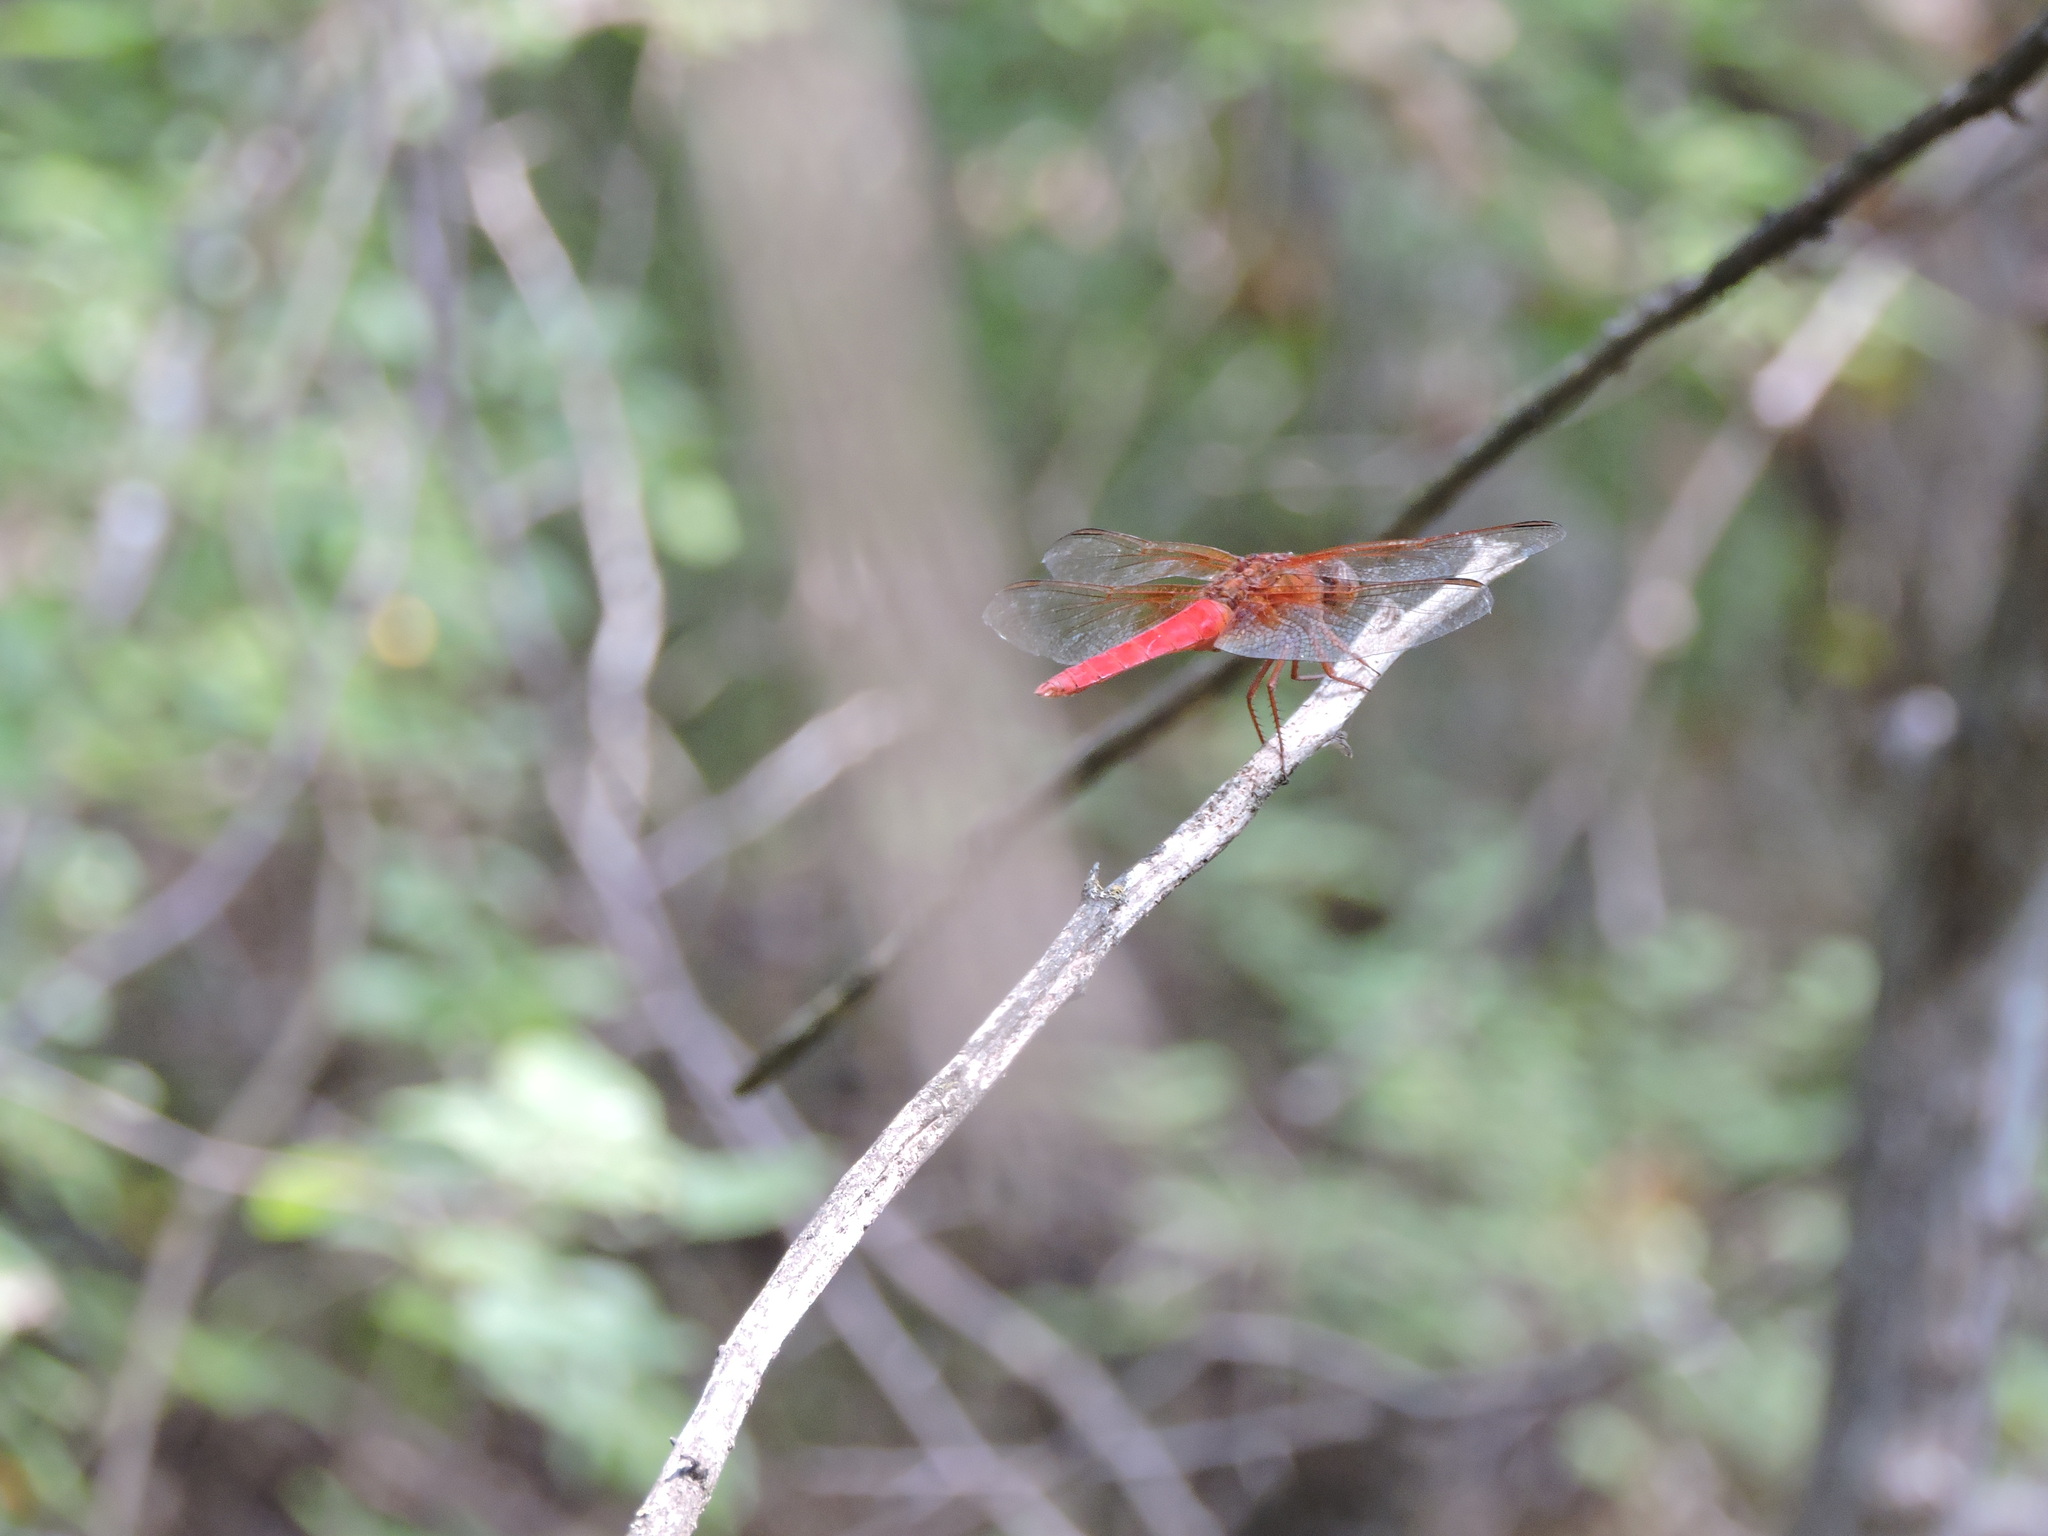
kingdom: Animalia
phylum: Arthropoda
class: Insecta
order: Odonata
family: Libellulidae
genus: Libellula
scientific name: Libellula croceipennis
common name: Neon skimmer
